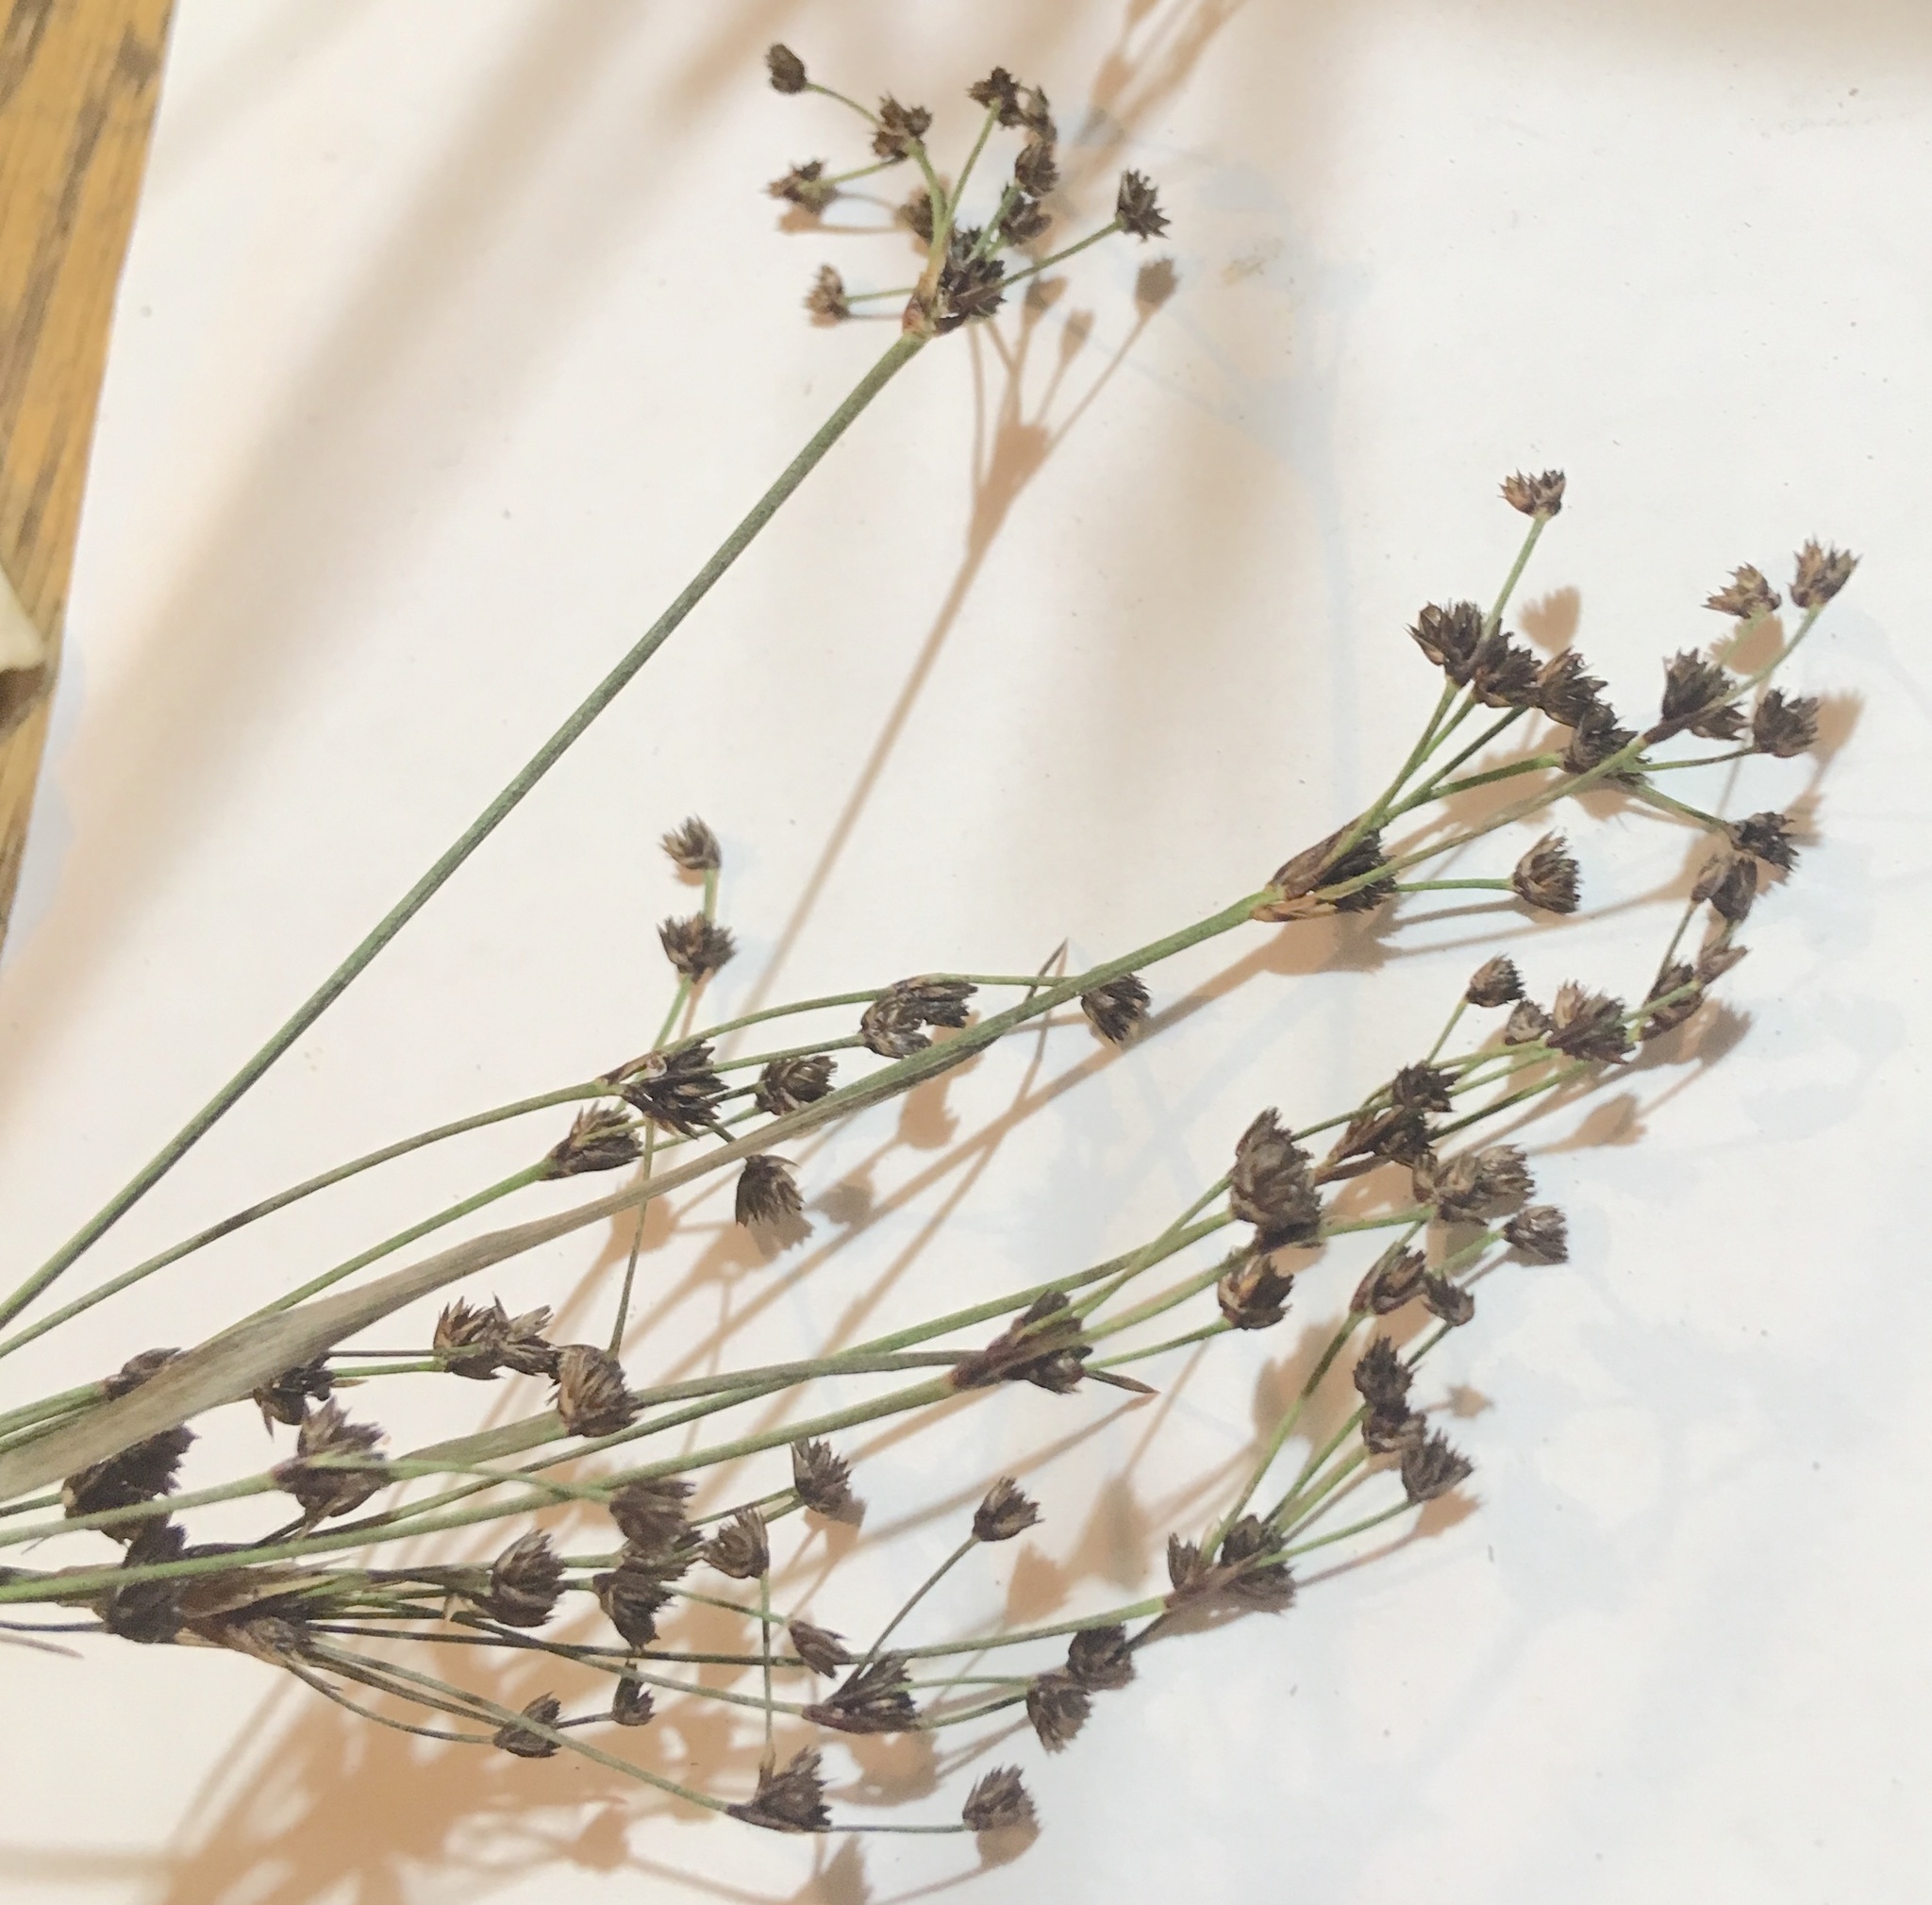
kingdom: Plantae
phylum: Tracheophyta
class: Liliopsida
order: Poales
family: Juncaceae
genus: Juncus
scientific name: Juncus planifolius
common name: Broadleaf rush
